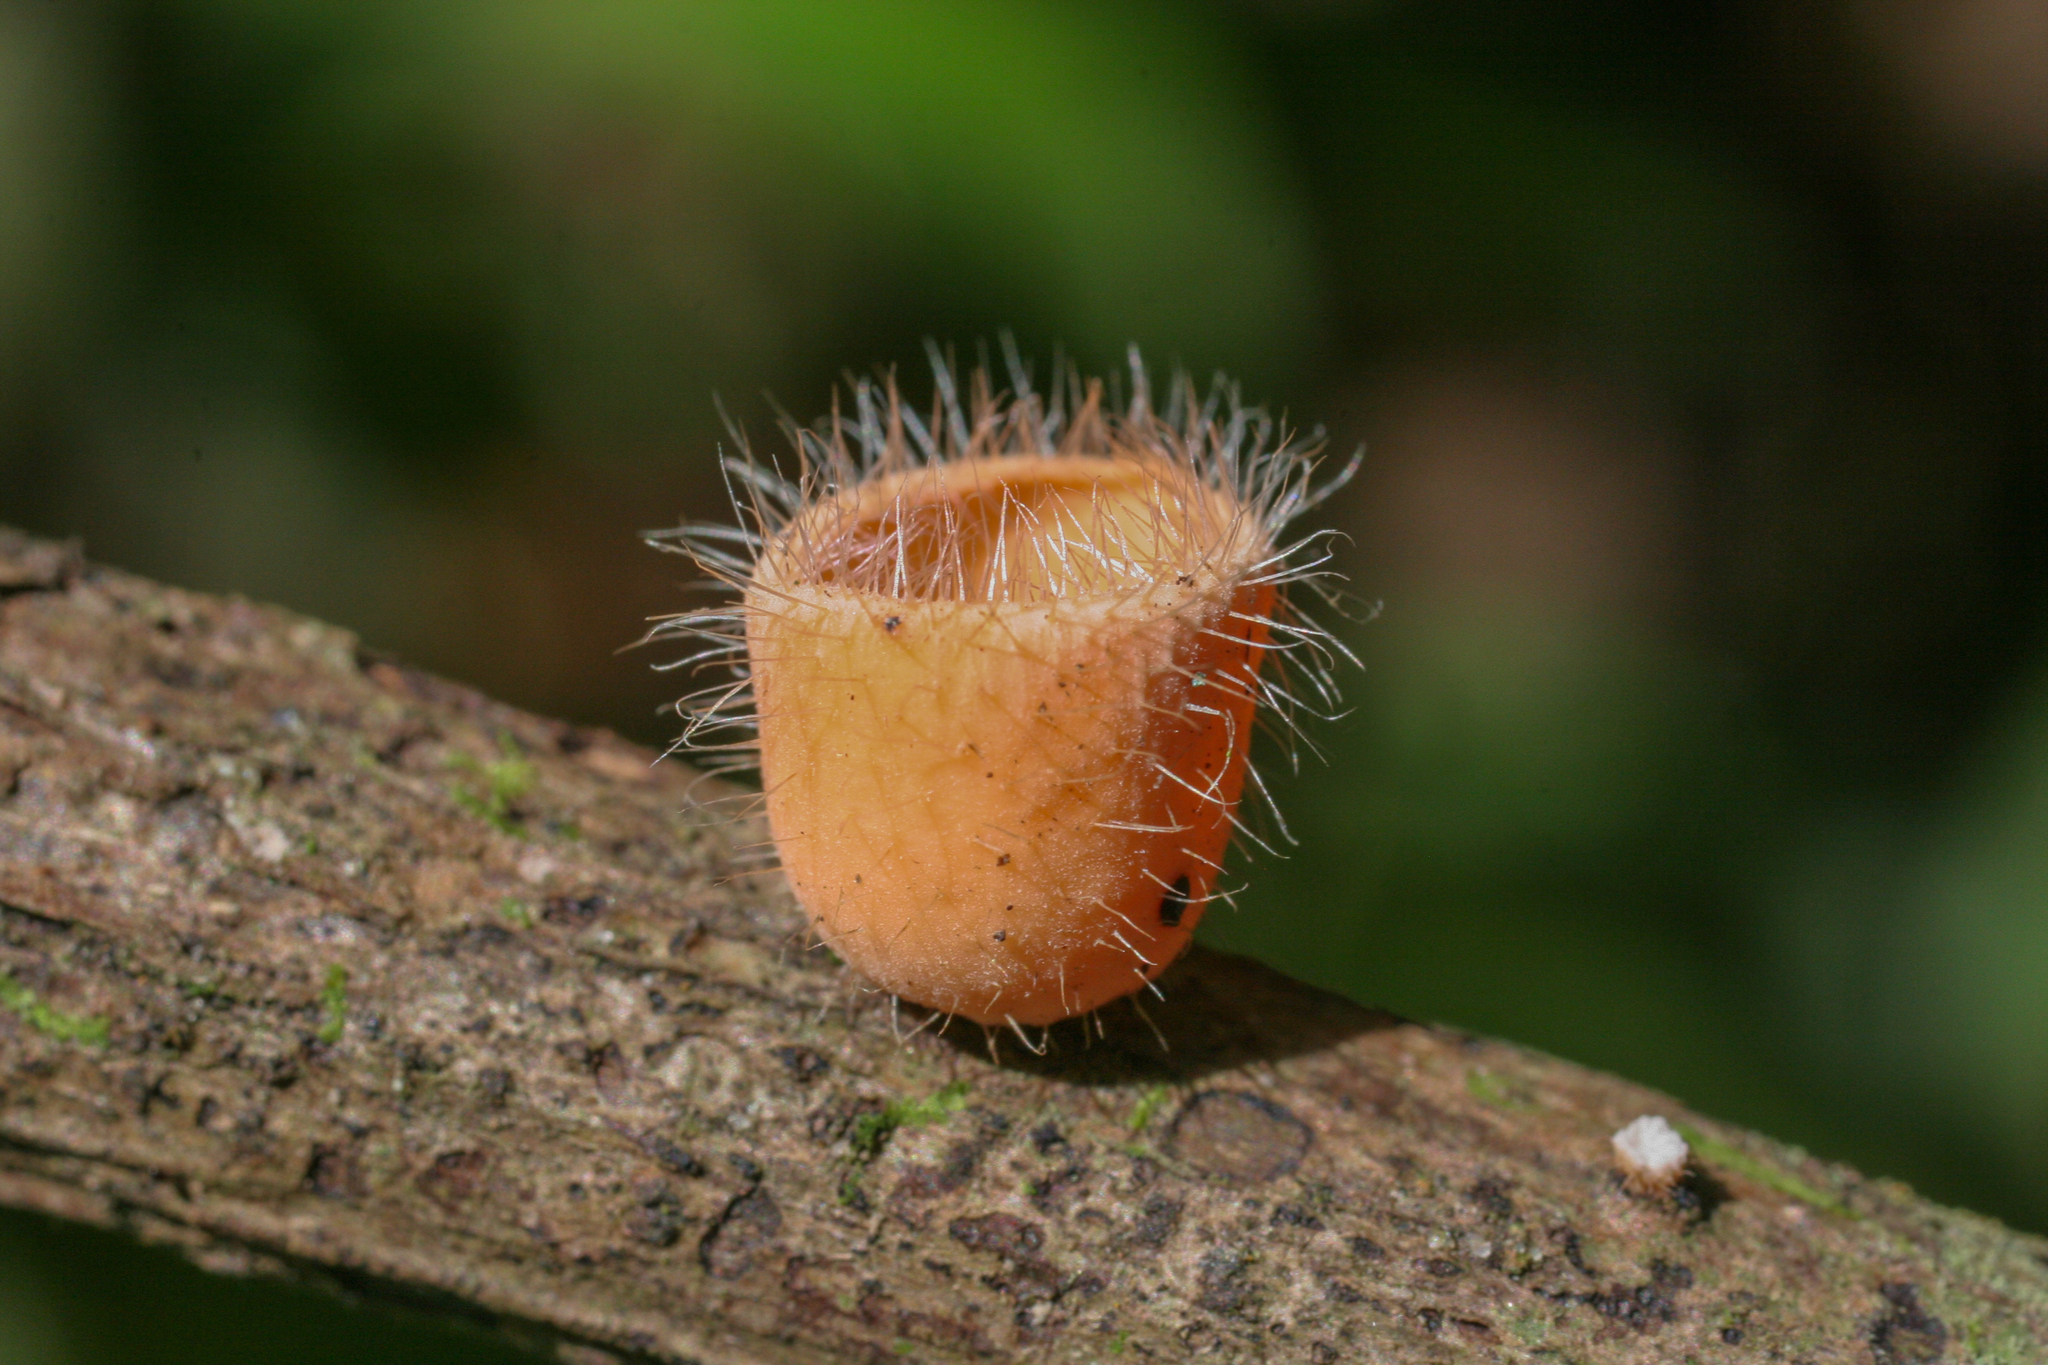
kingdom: Fungi
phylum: Ascomycota
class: Pezizomycetes
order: Pezizales
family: Sarcoscyphaceae
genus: Cookeina
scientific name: Cookeina tricholoma
